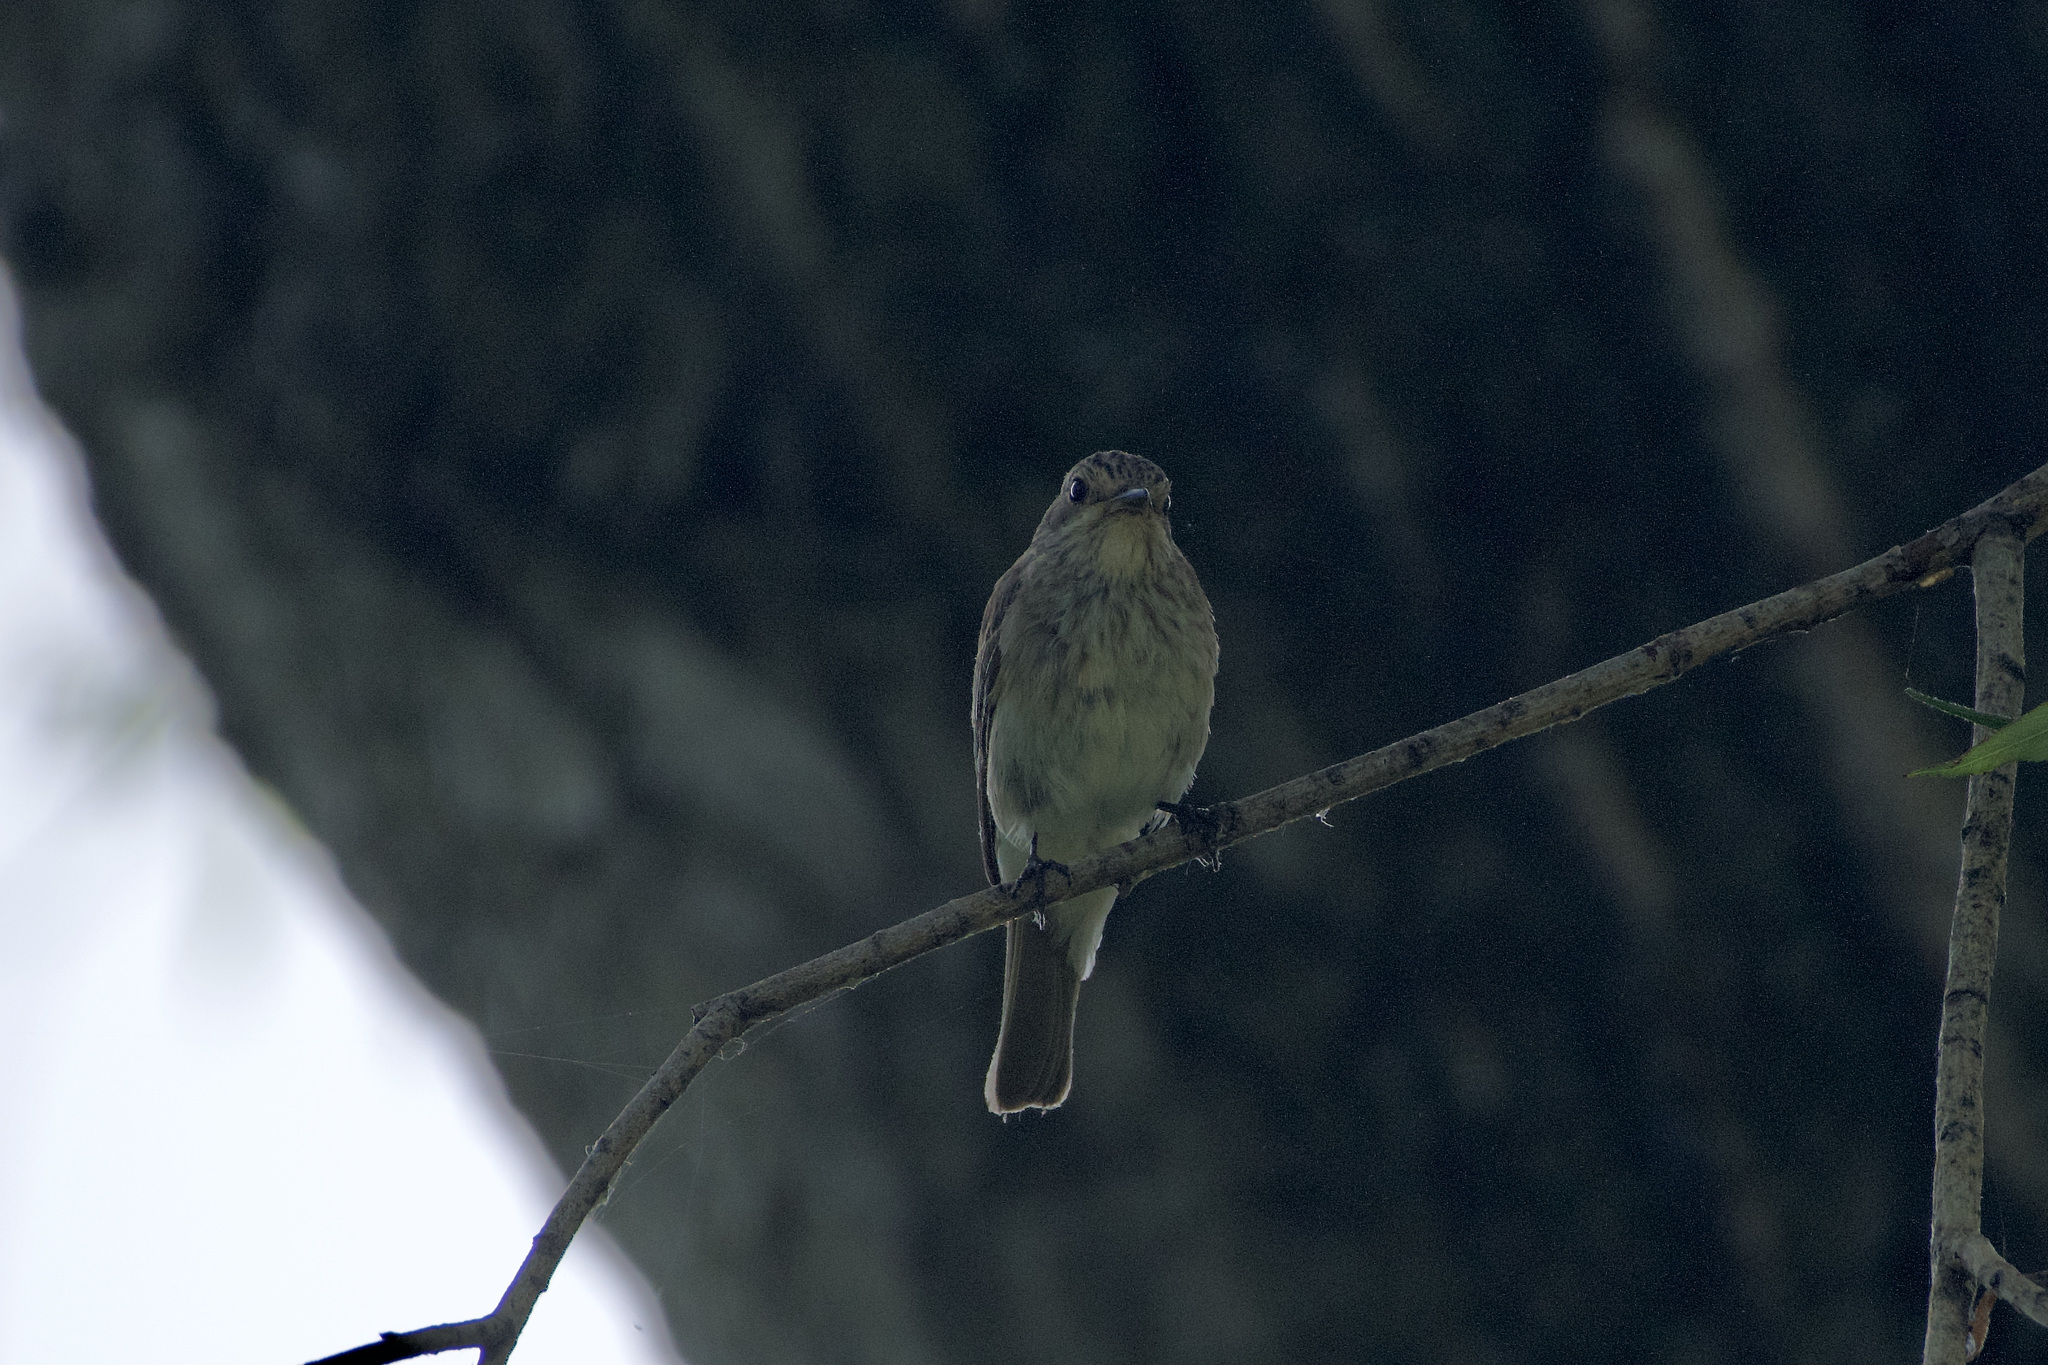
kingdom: Animalia
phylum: Chordata
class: Aves
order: Passeriformes
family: Muscicapidae
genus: Muscicapa
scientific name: Muscicapa striata
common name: Spotted flycatcher
